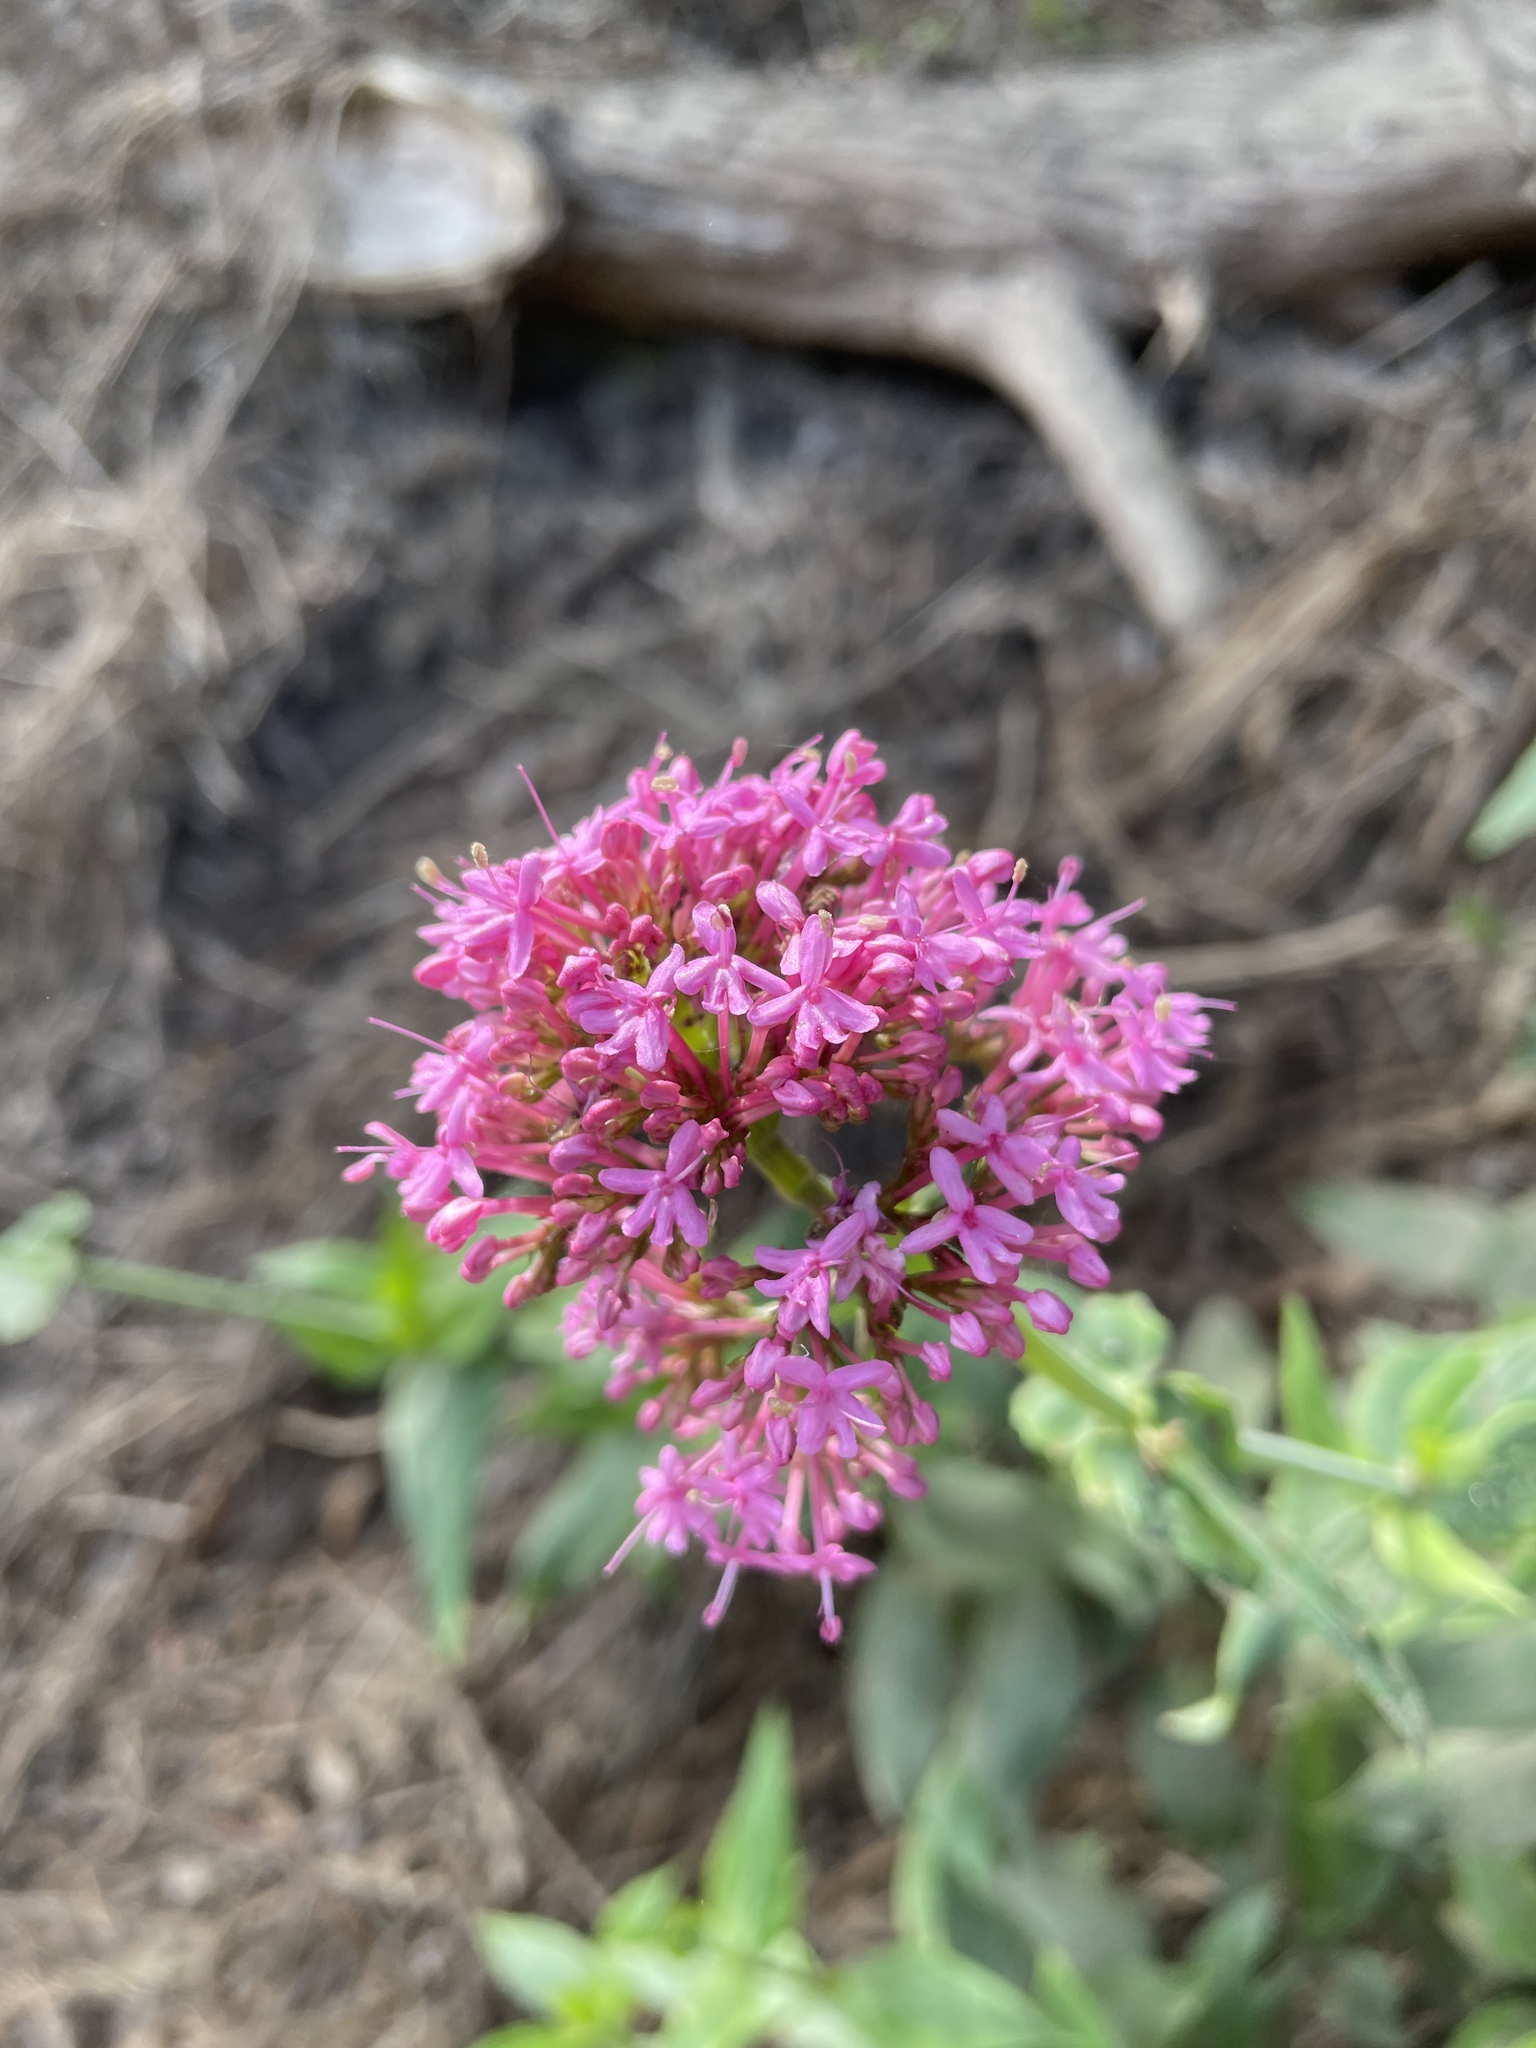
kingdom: Plantae
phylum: Tracheophyta
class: Magnoliopsida
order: Dipsacales
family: Caprifoliaceae
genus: Centranthus
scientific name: Centranthus ruber
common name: Red valerian
